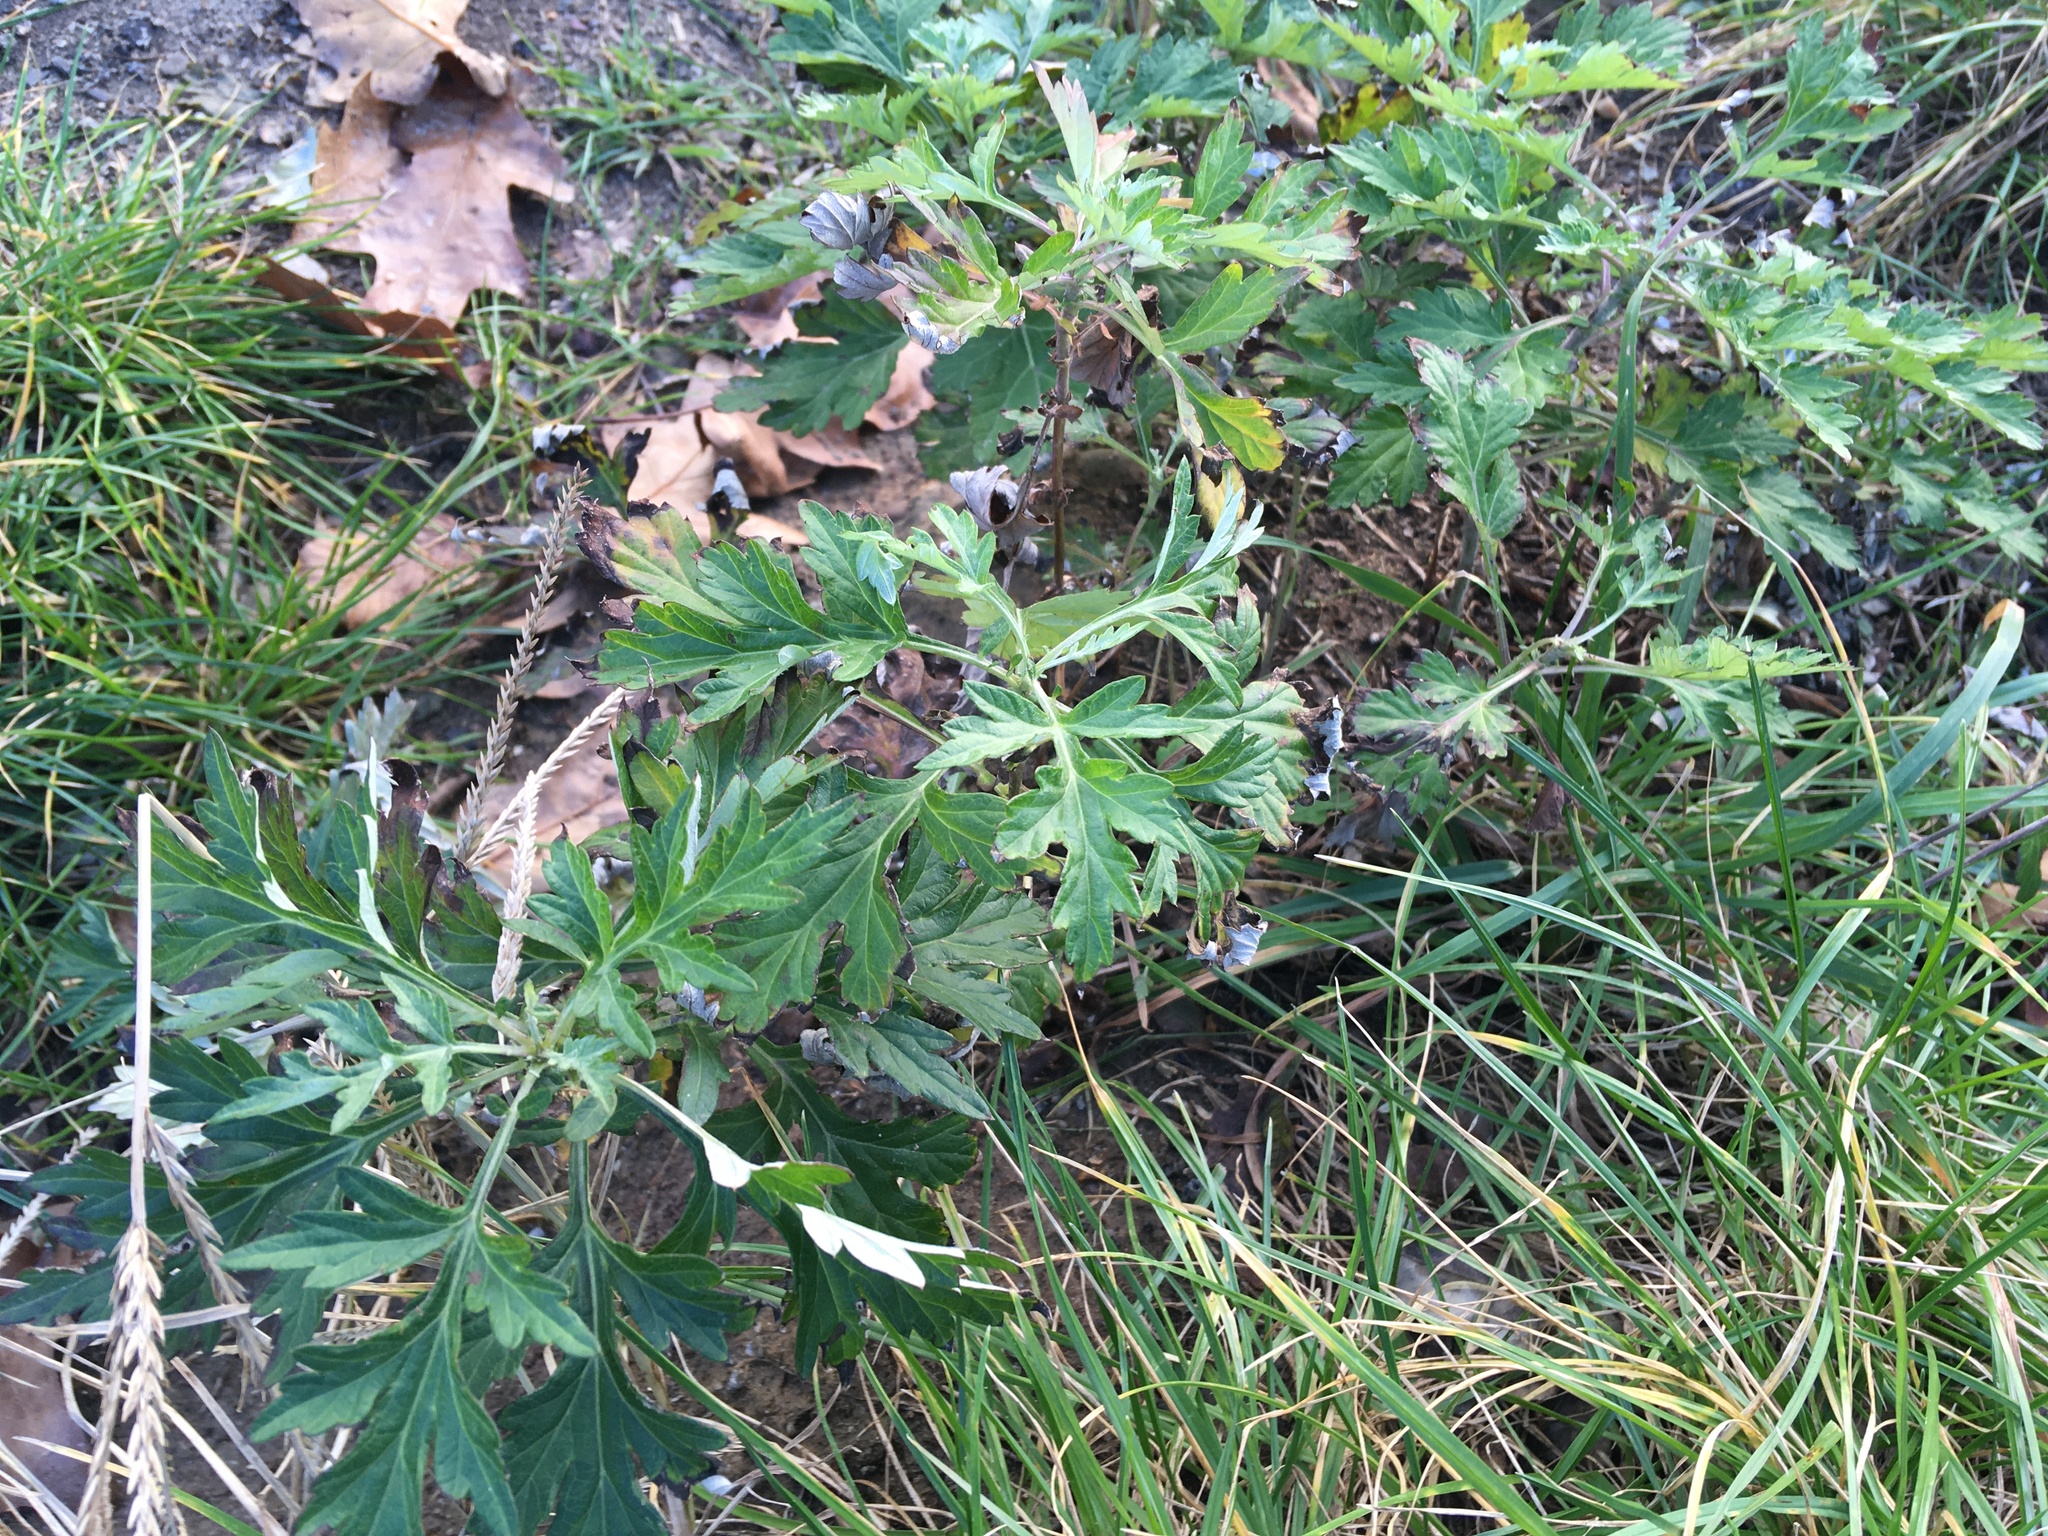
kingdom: Plantae
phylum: Tracheophyta
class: Magnoliopsida
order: Asterales
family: Asteraceae
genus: Artemisia
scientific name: Artemisia vulgaris
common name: Mugwort
